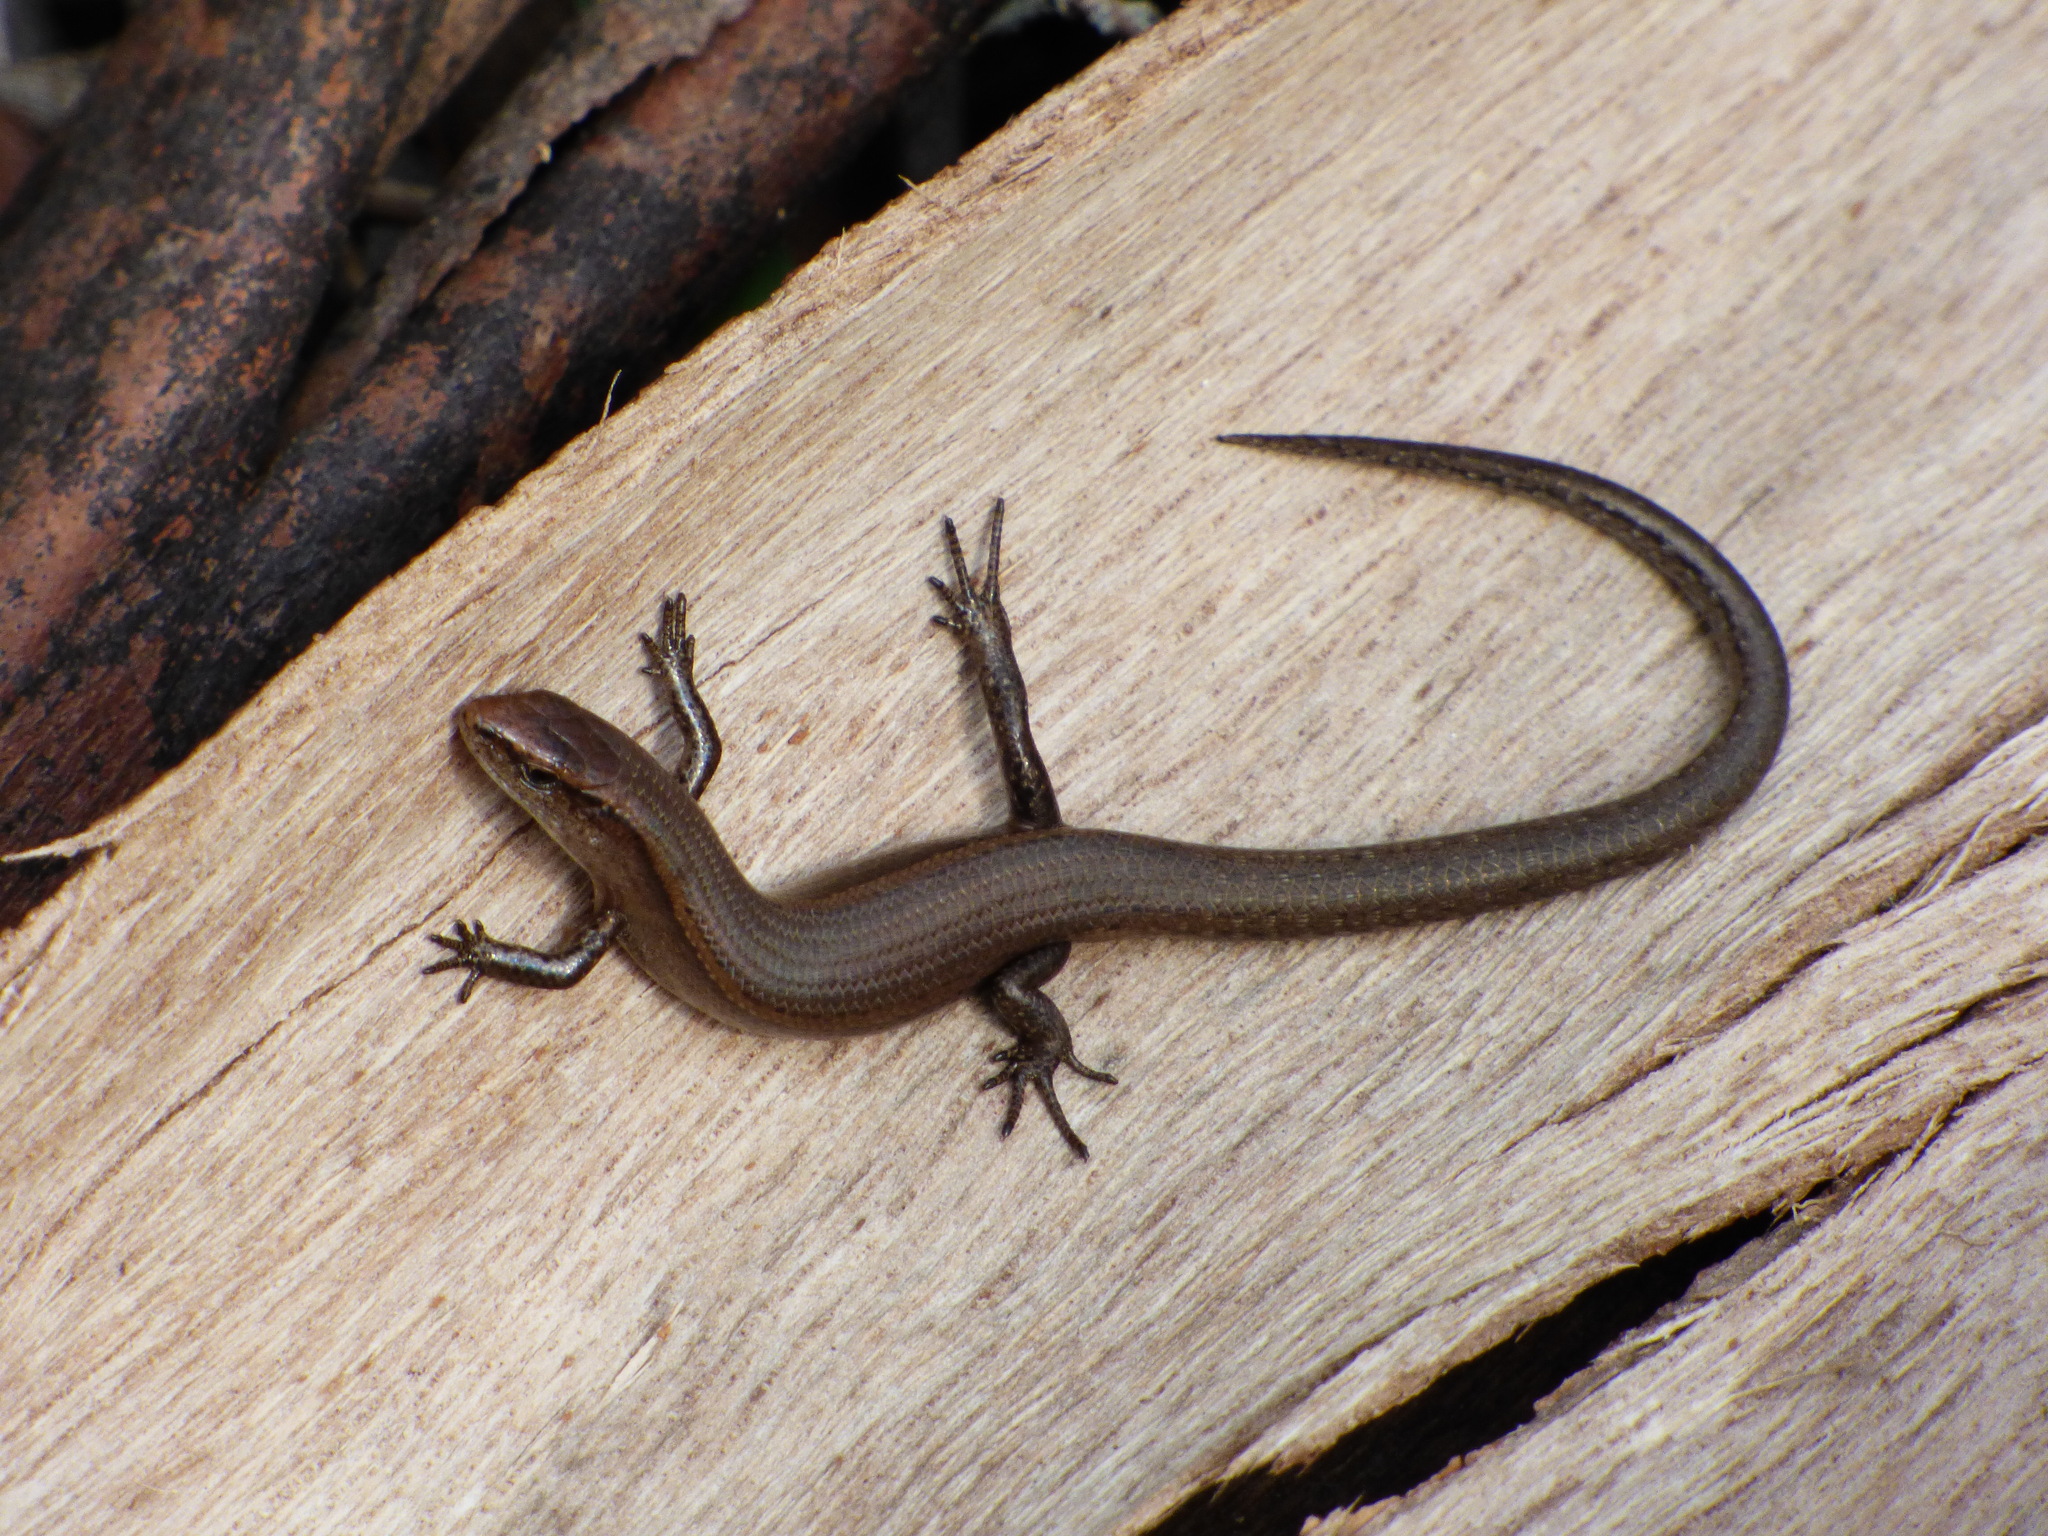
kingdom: Animalia
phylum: Chordata
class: Squamata
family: Scincidae
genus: Carinascincus
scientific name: Carinascincus metallicus
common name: Metallic cool-skink
